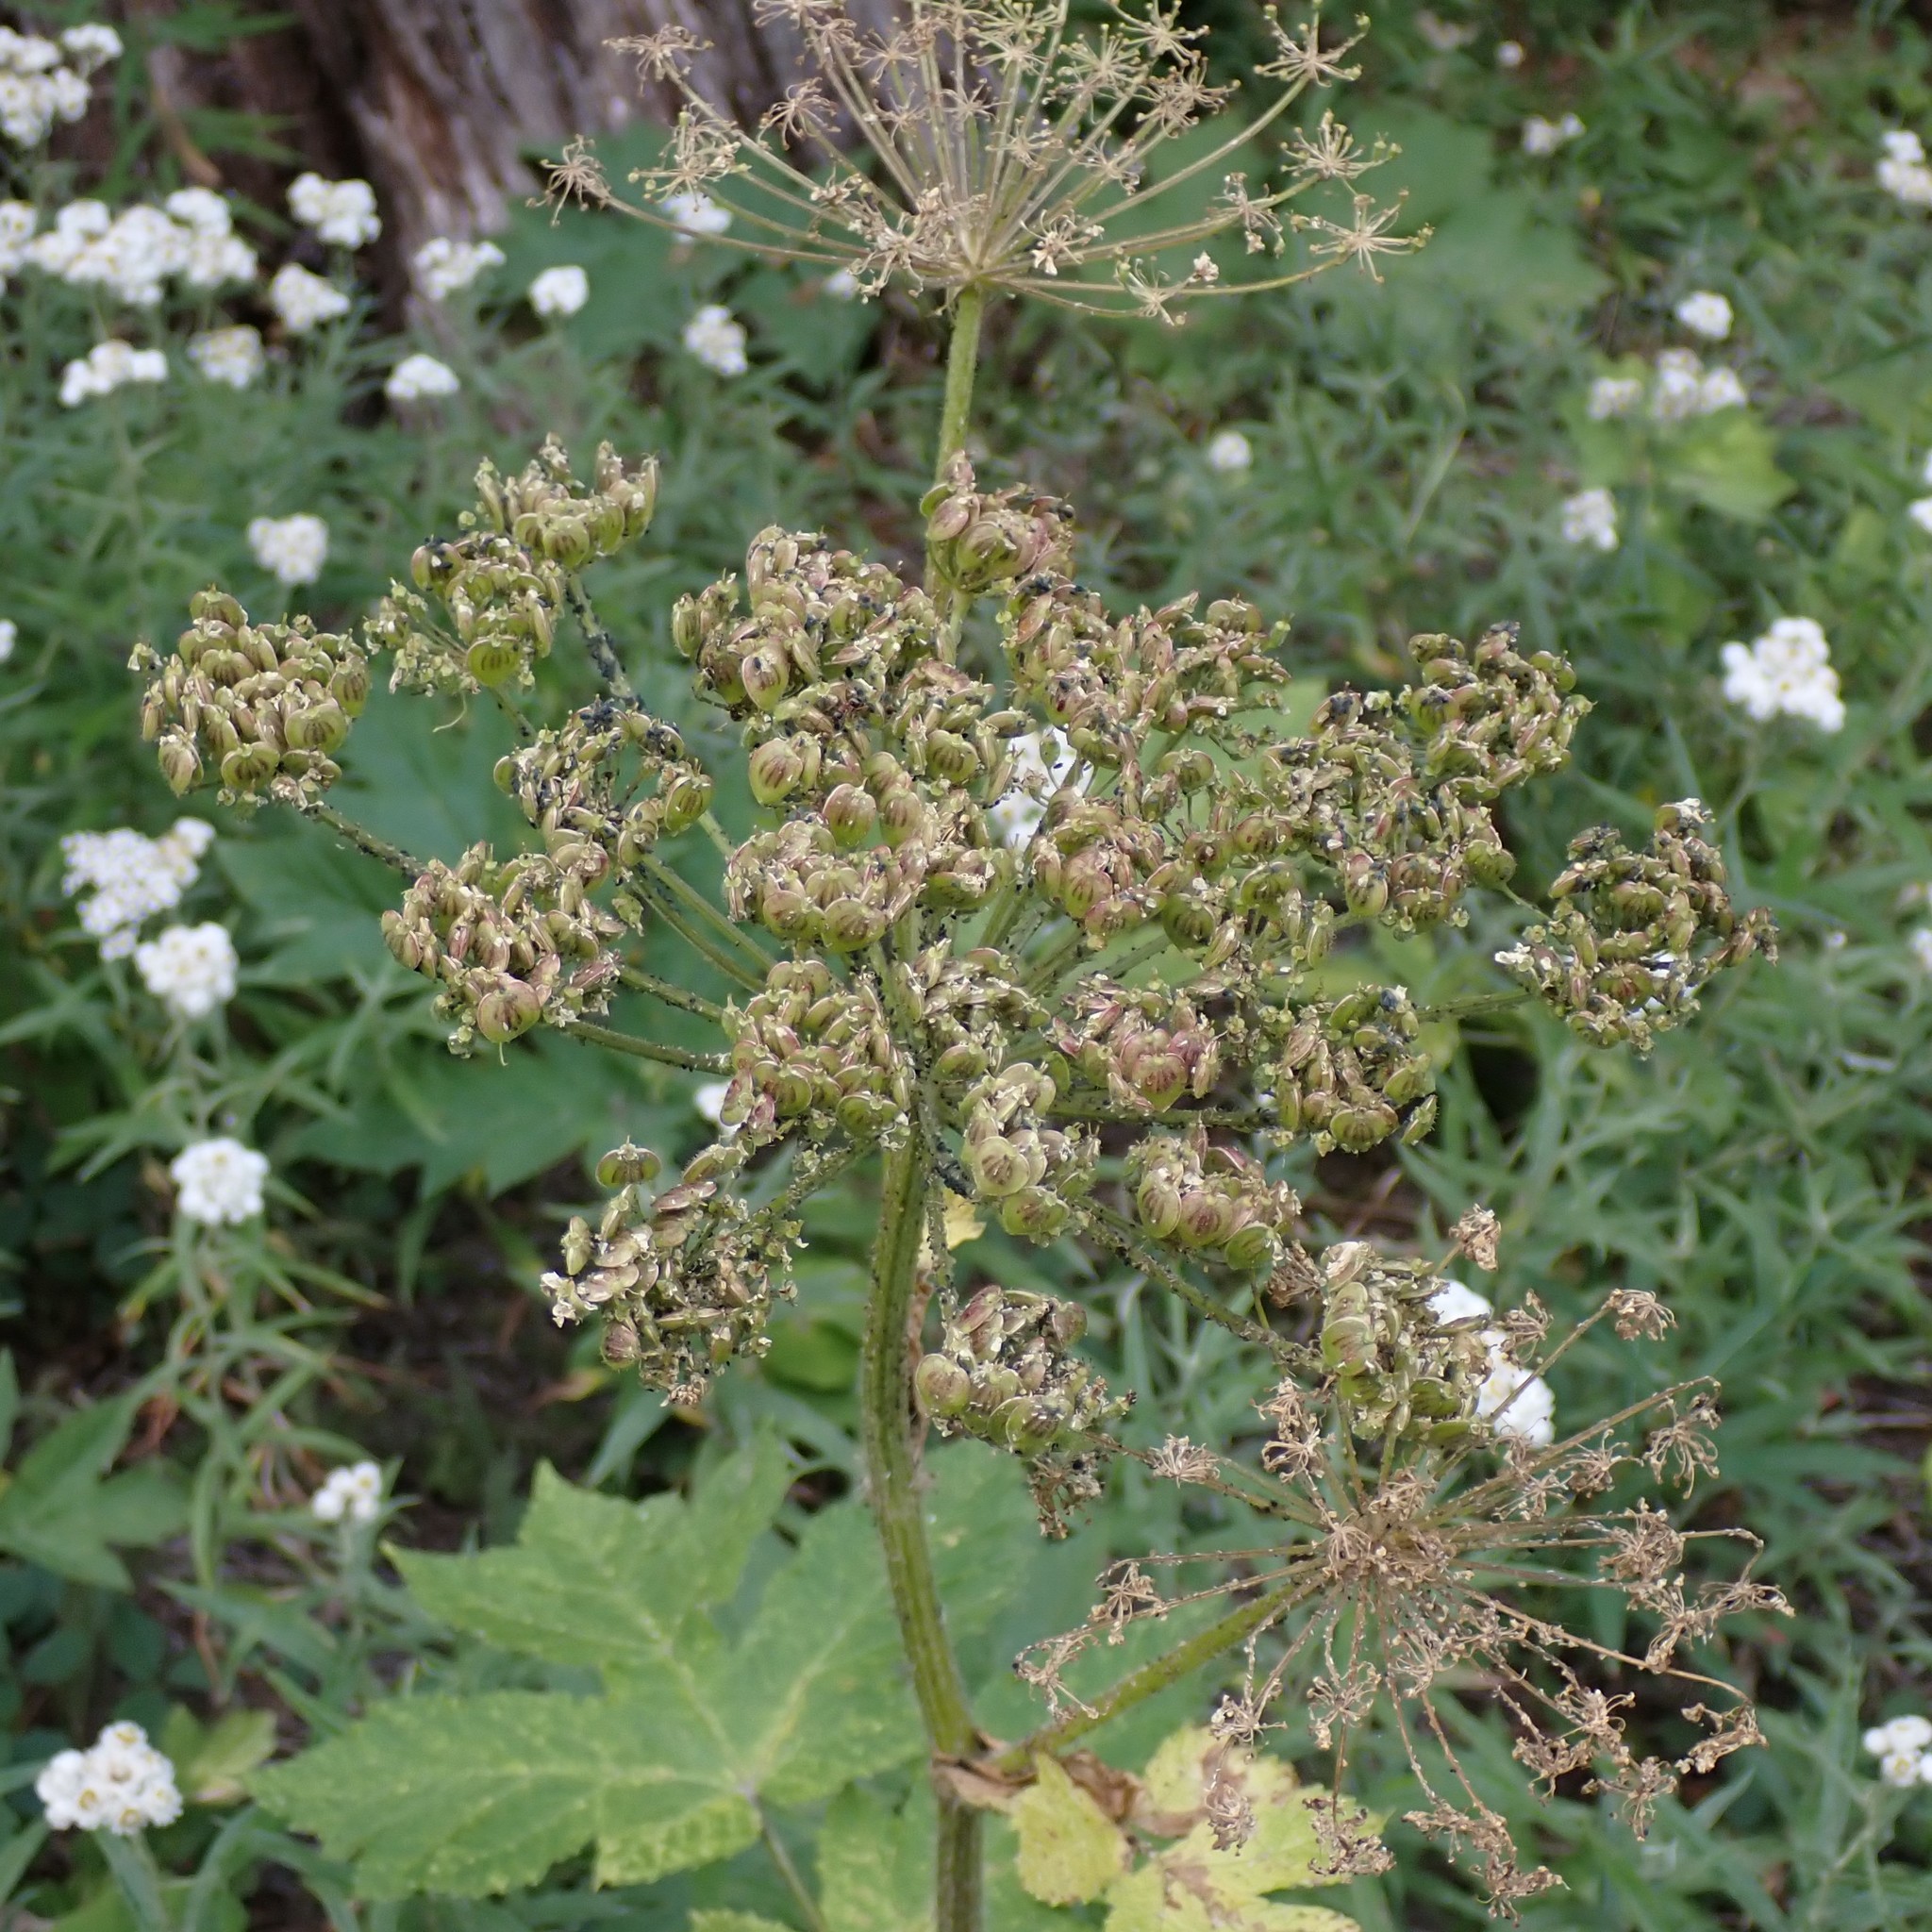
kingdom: Plantae
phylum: Tracheophyta
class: Magnoliopsida
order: Apiales
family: Apiaceae
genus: Heracleum
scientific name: Heracleum maximum
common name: American cow parsnip
